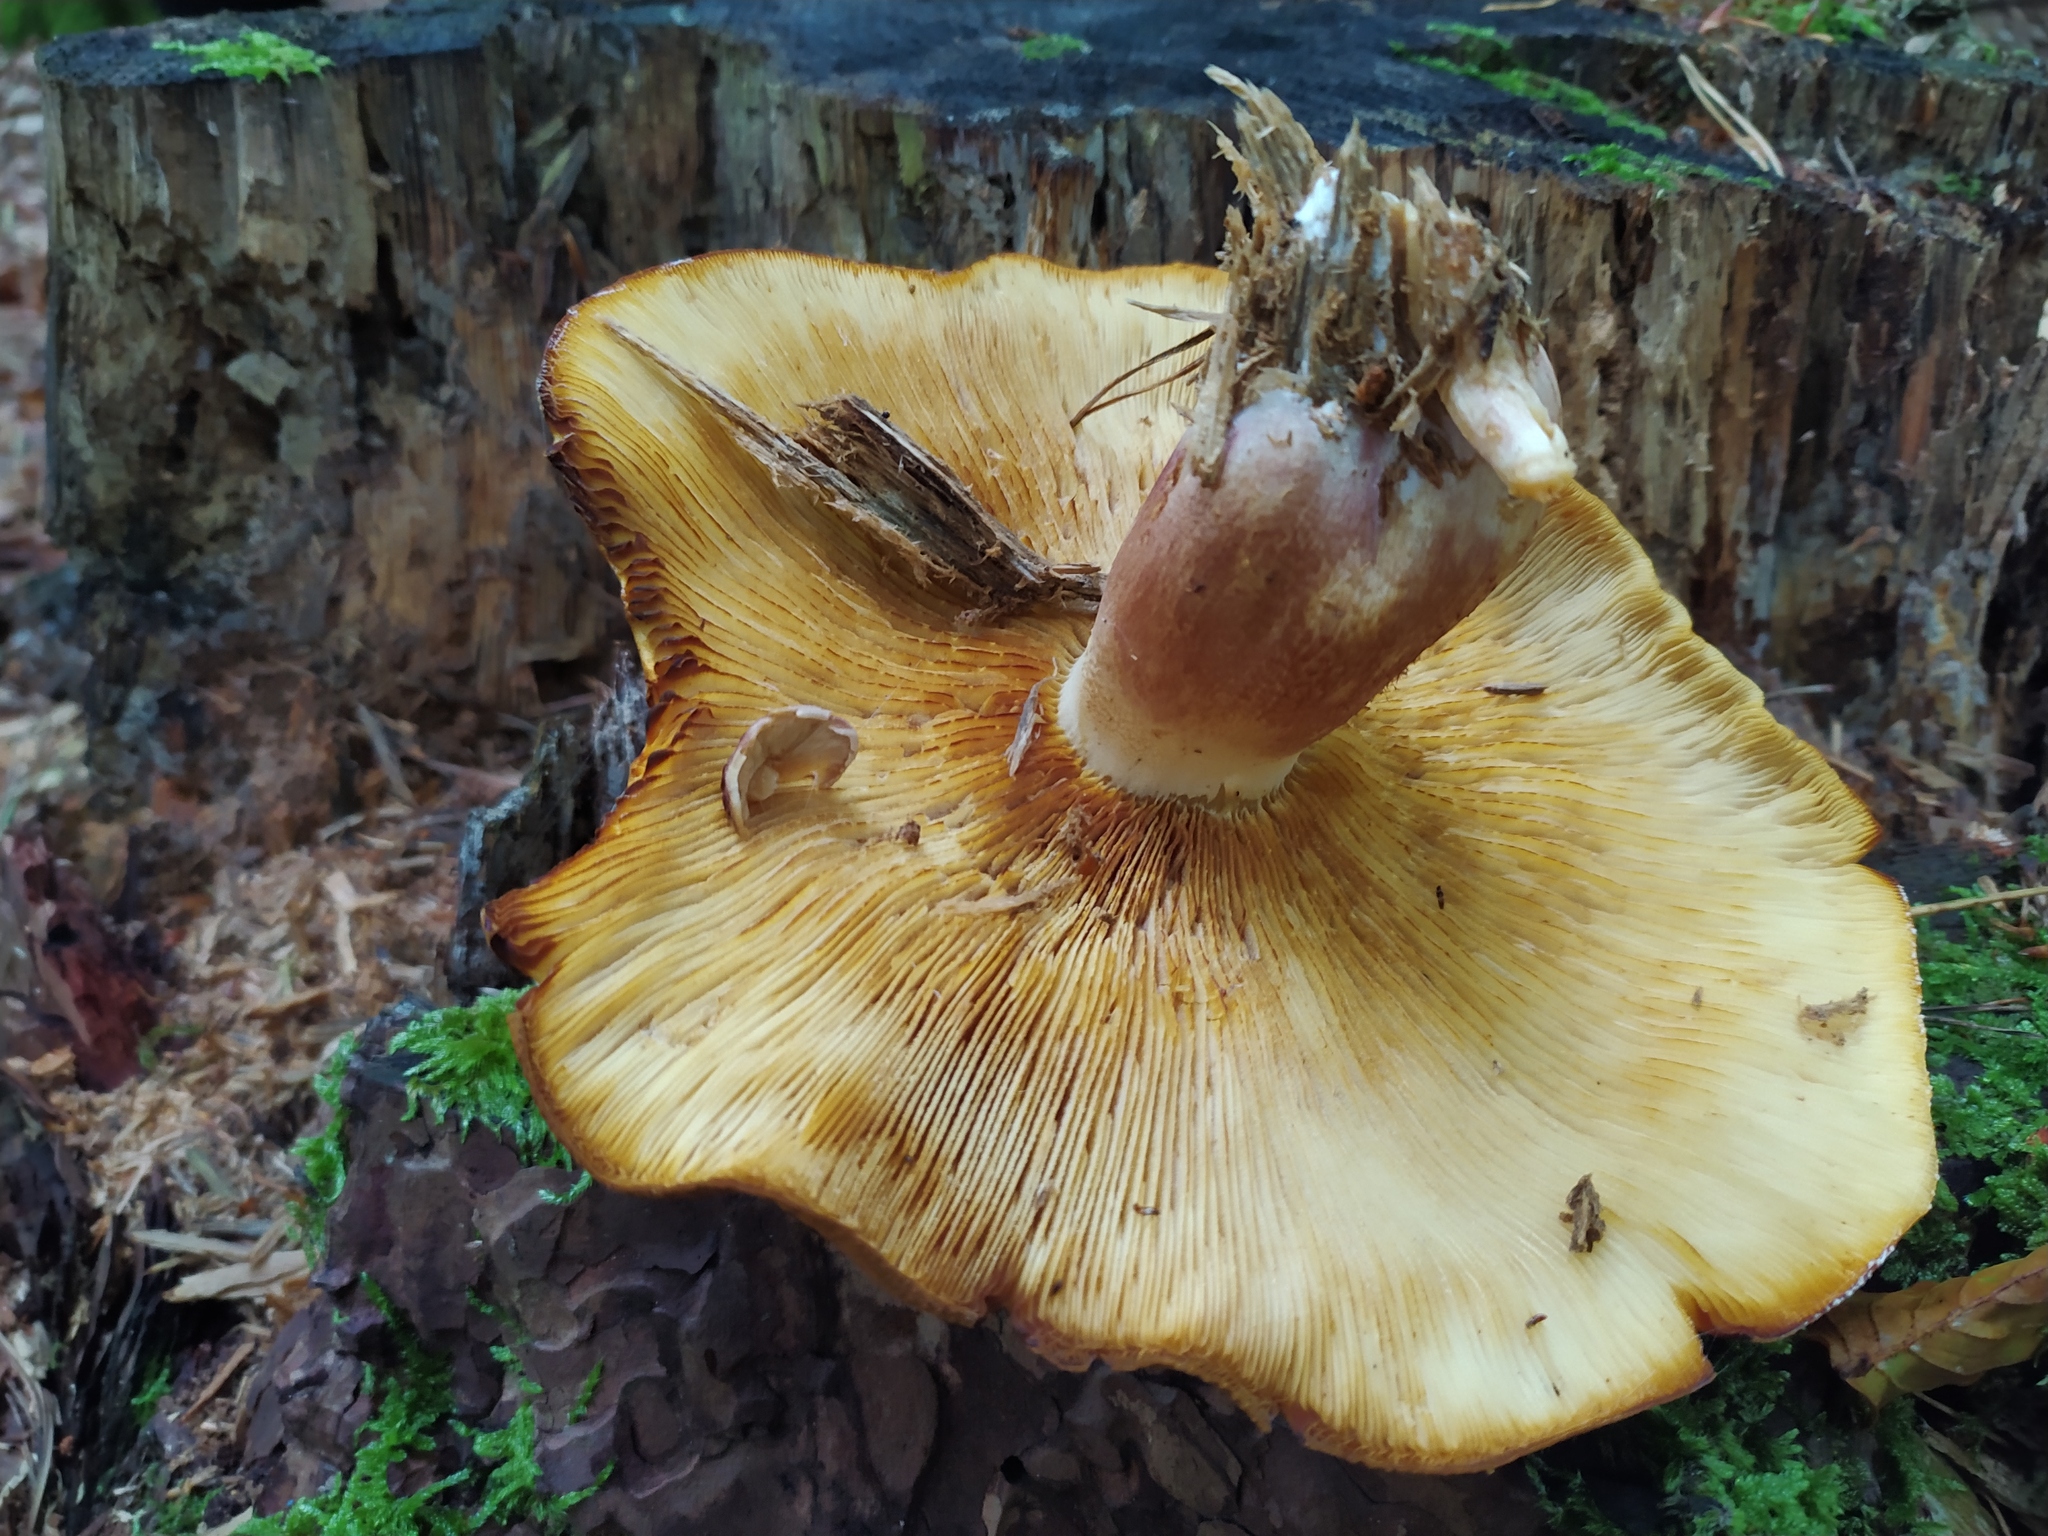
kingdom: Fungi
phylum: Basidiomycota
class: Agaricomycetes
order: Agaricales
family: Tricholomataceae
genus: Tricholomopsis
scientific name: Tricholomopsis rutilans
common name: Plums and custard
